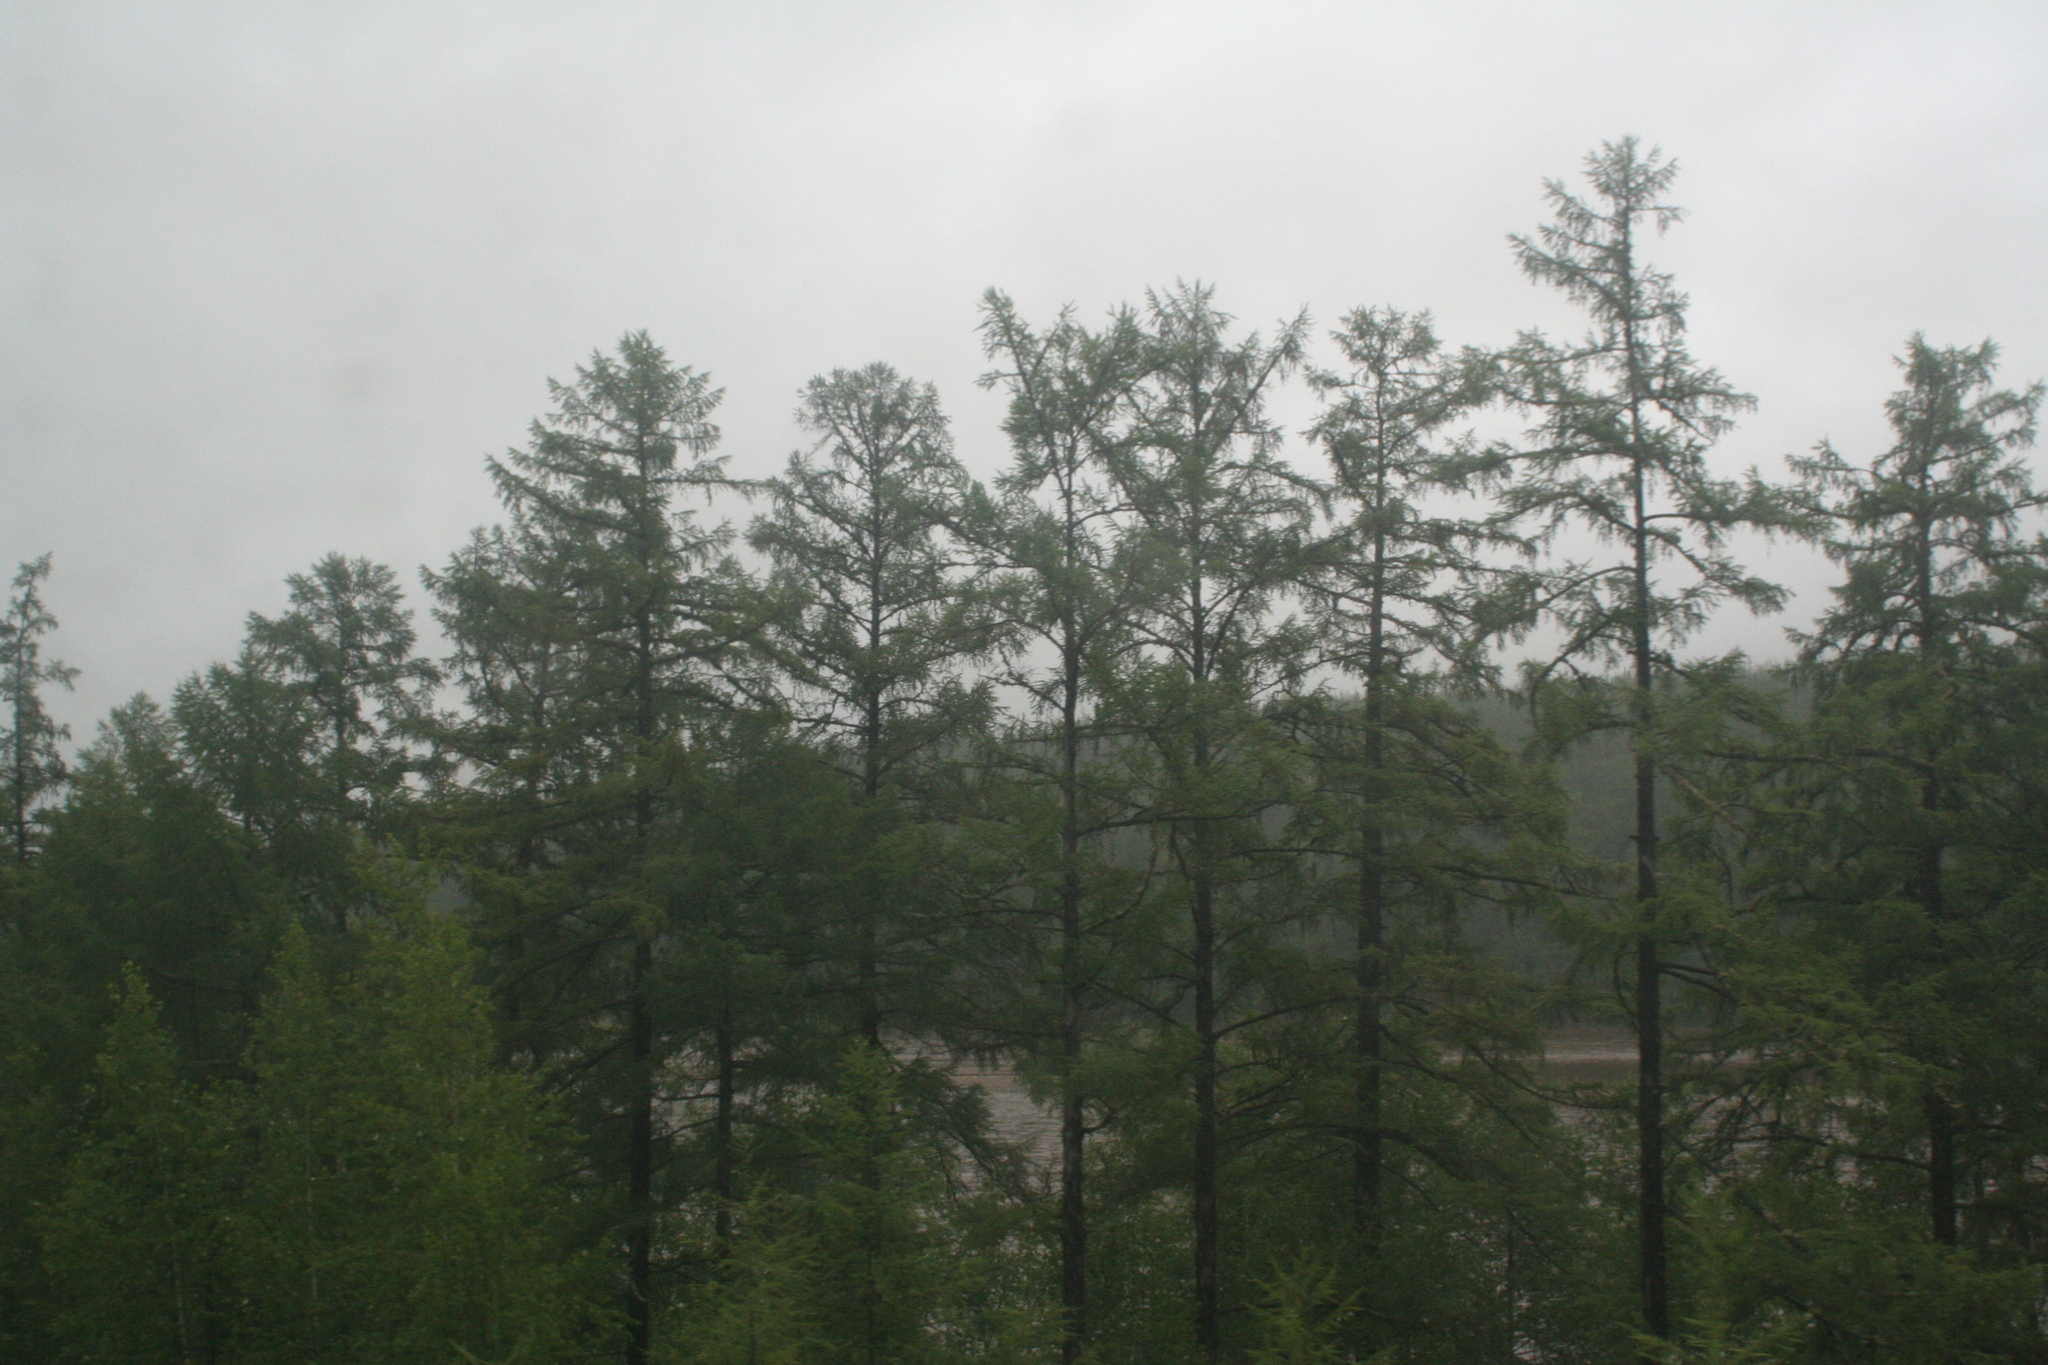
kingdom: Plantae
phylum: Tracheophyta
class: Pinopsida
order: Pinales
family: Pinaceae
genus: Larix
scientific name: Larix gmelinii
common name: Dahurian larch
